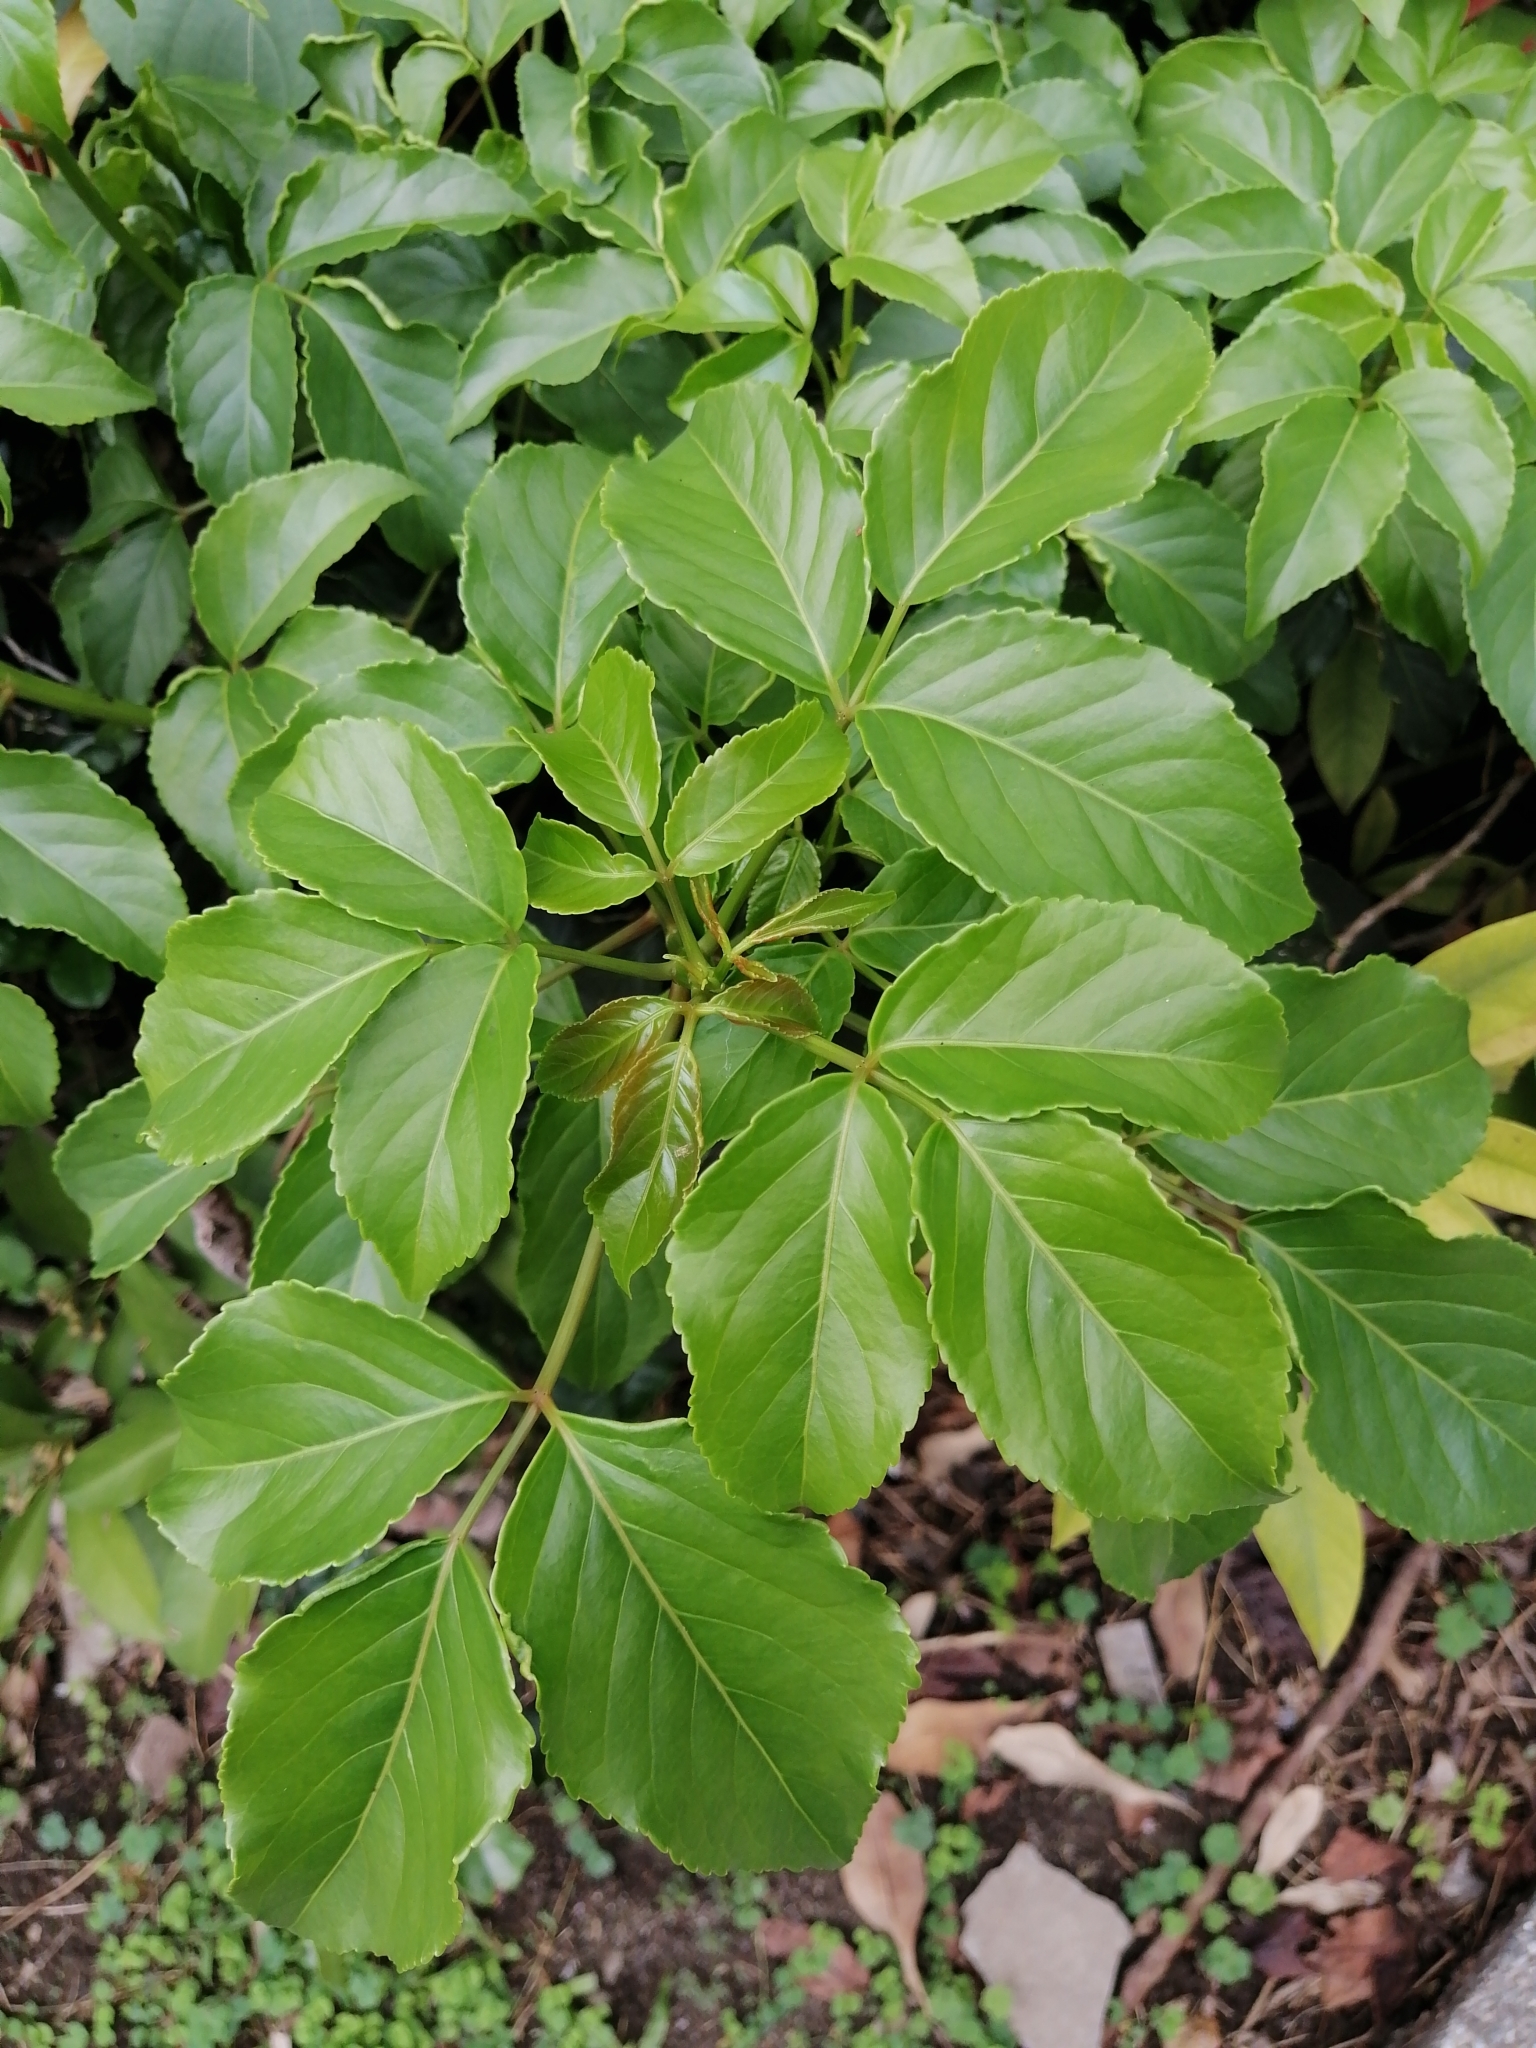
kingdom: Plantae
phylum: Tracheophyta
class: Magnoliopsida
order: Malpighiales
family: Phyllanthaceae
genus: Bischofia
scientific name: Bischofia javanica
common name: Javanese bishopwood
